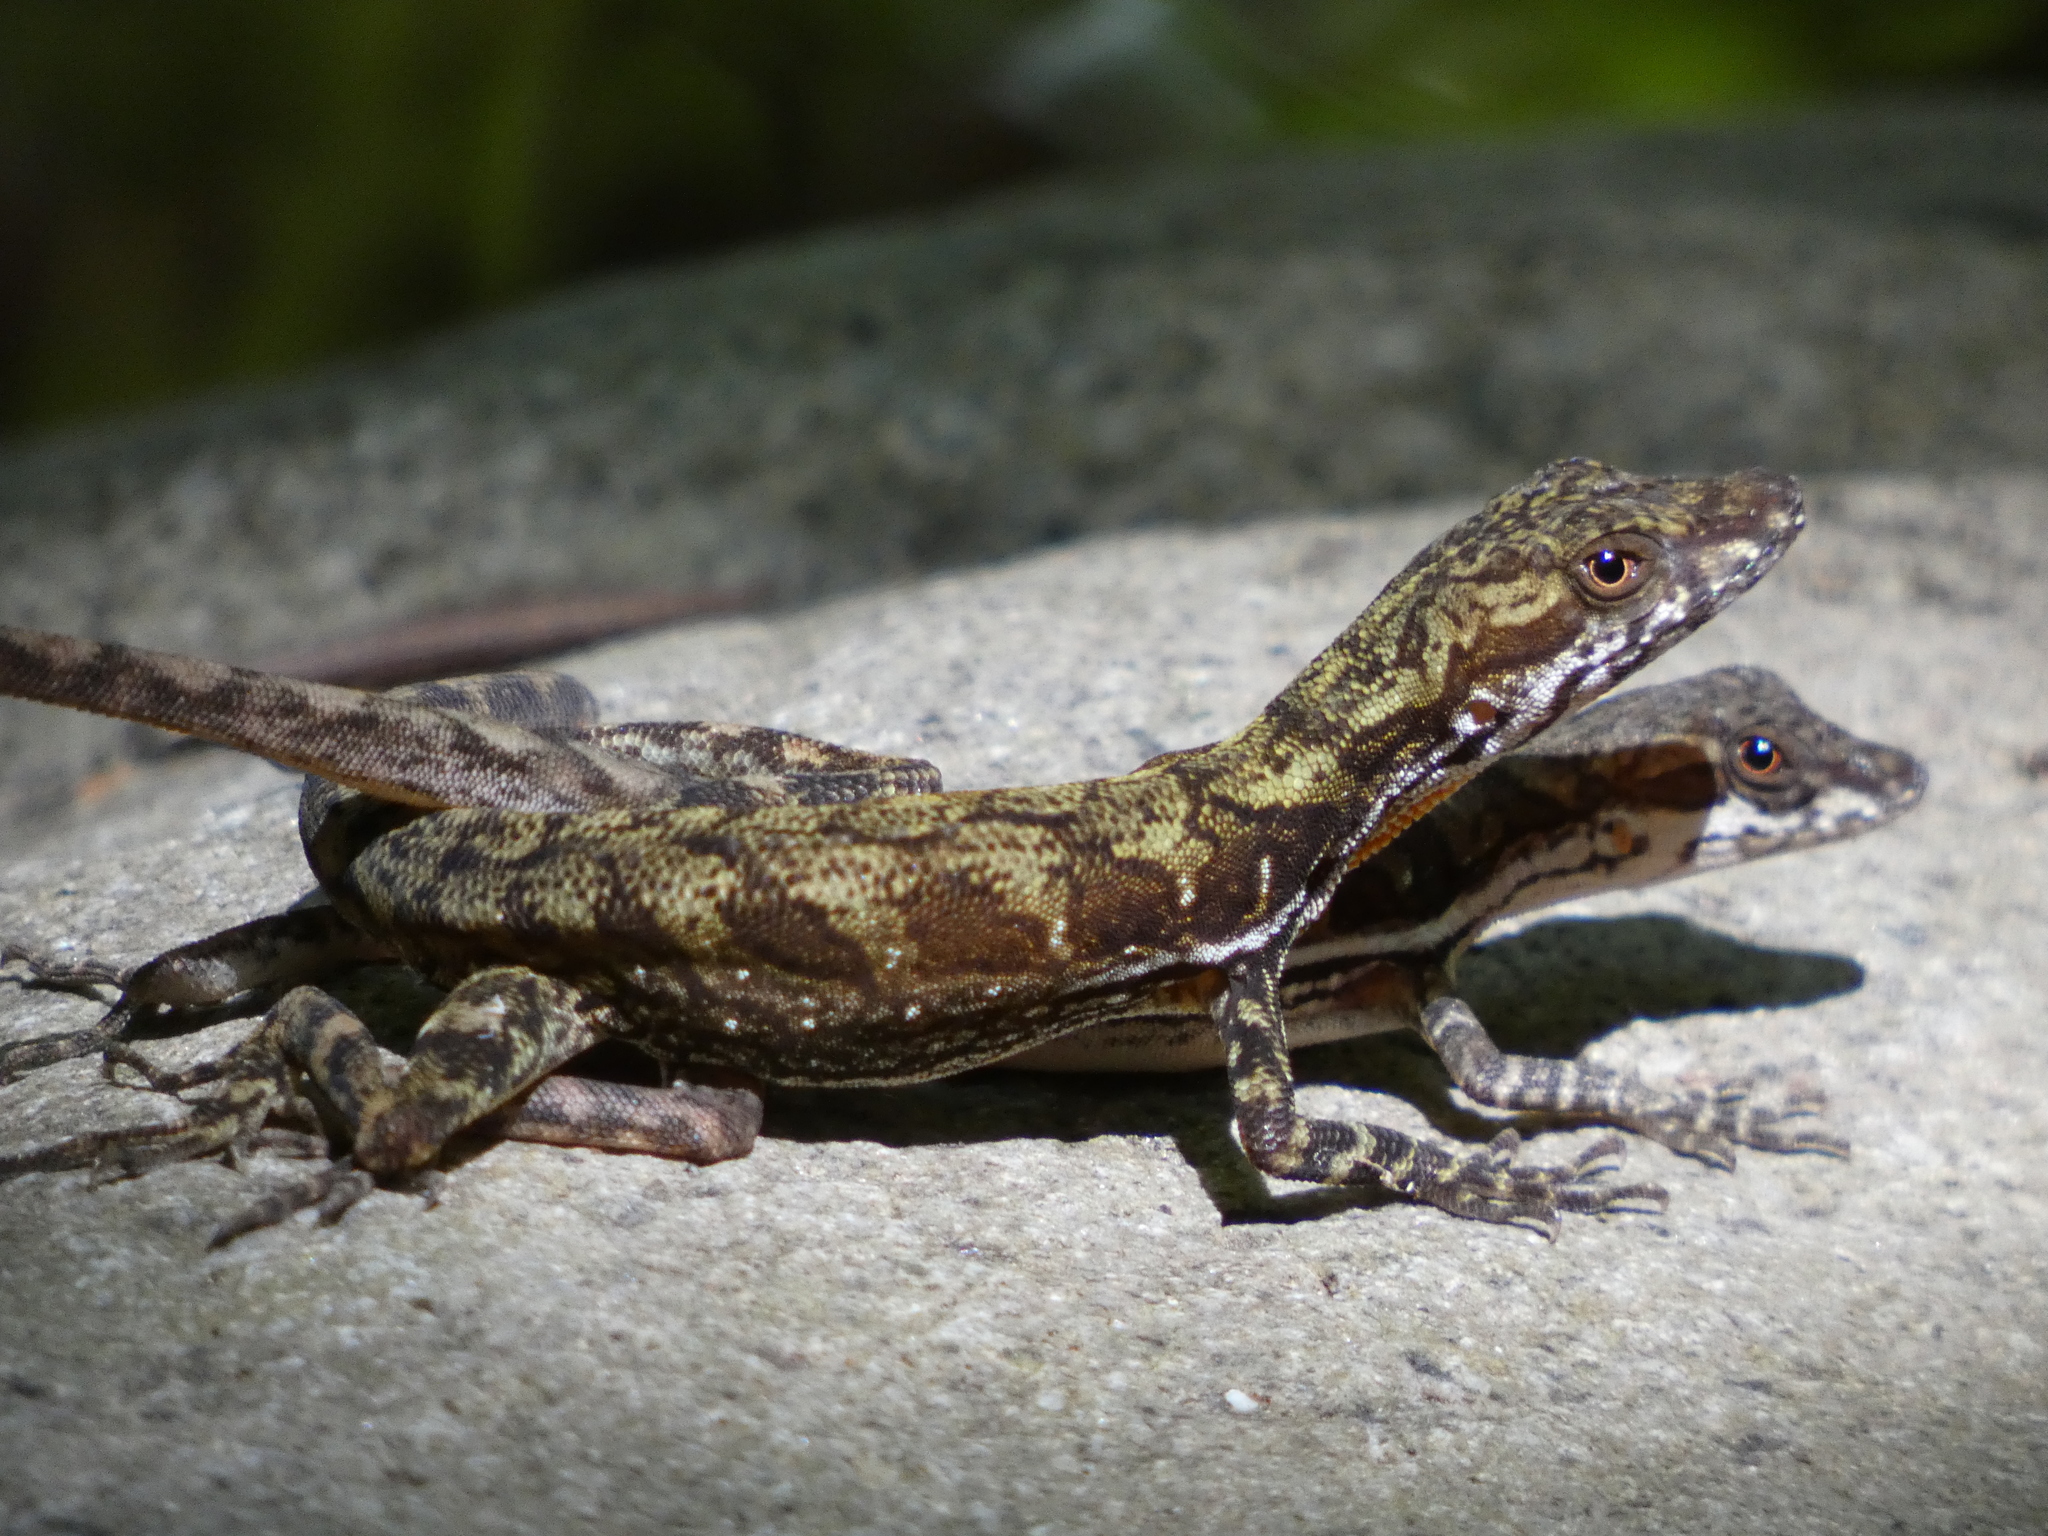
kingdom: Animalia
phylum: Chordata
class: Squamata
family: Dactyloidae
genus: Anolis
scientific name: Anolis lionotus
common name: Lion anole
